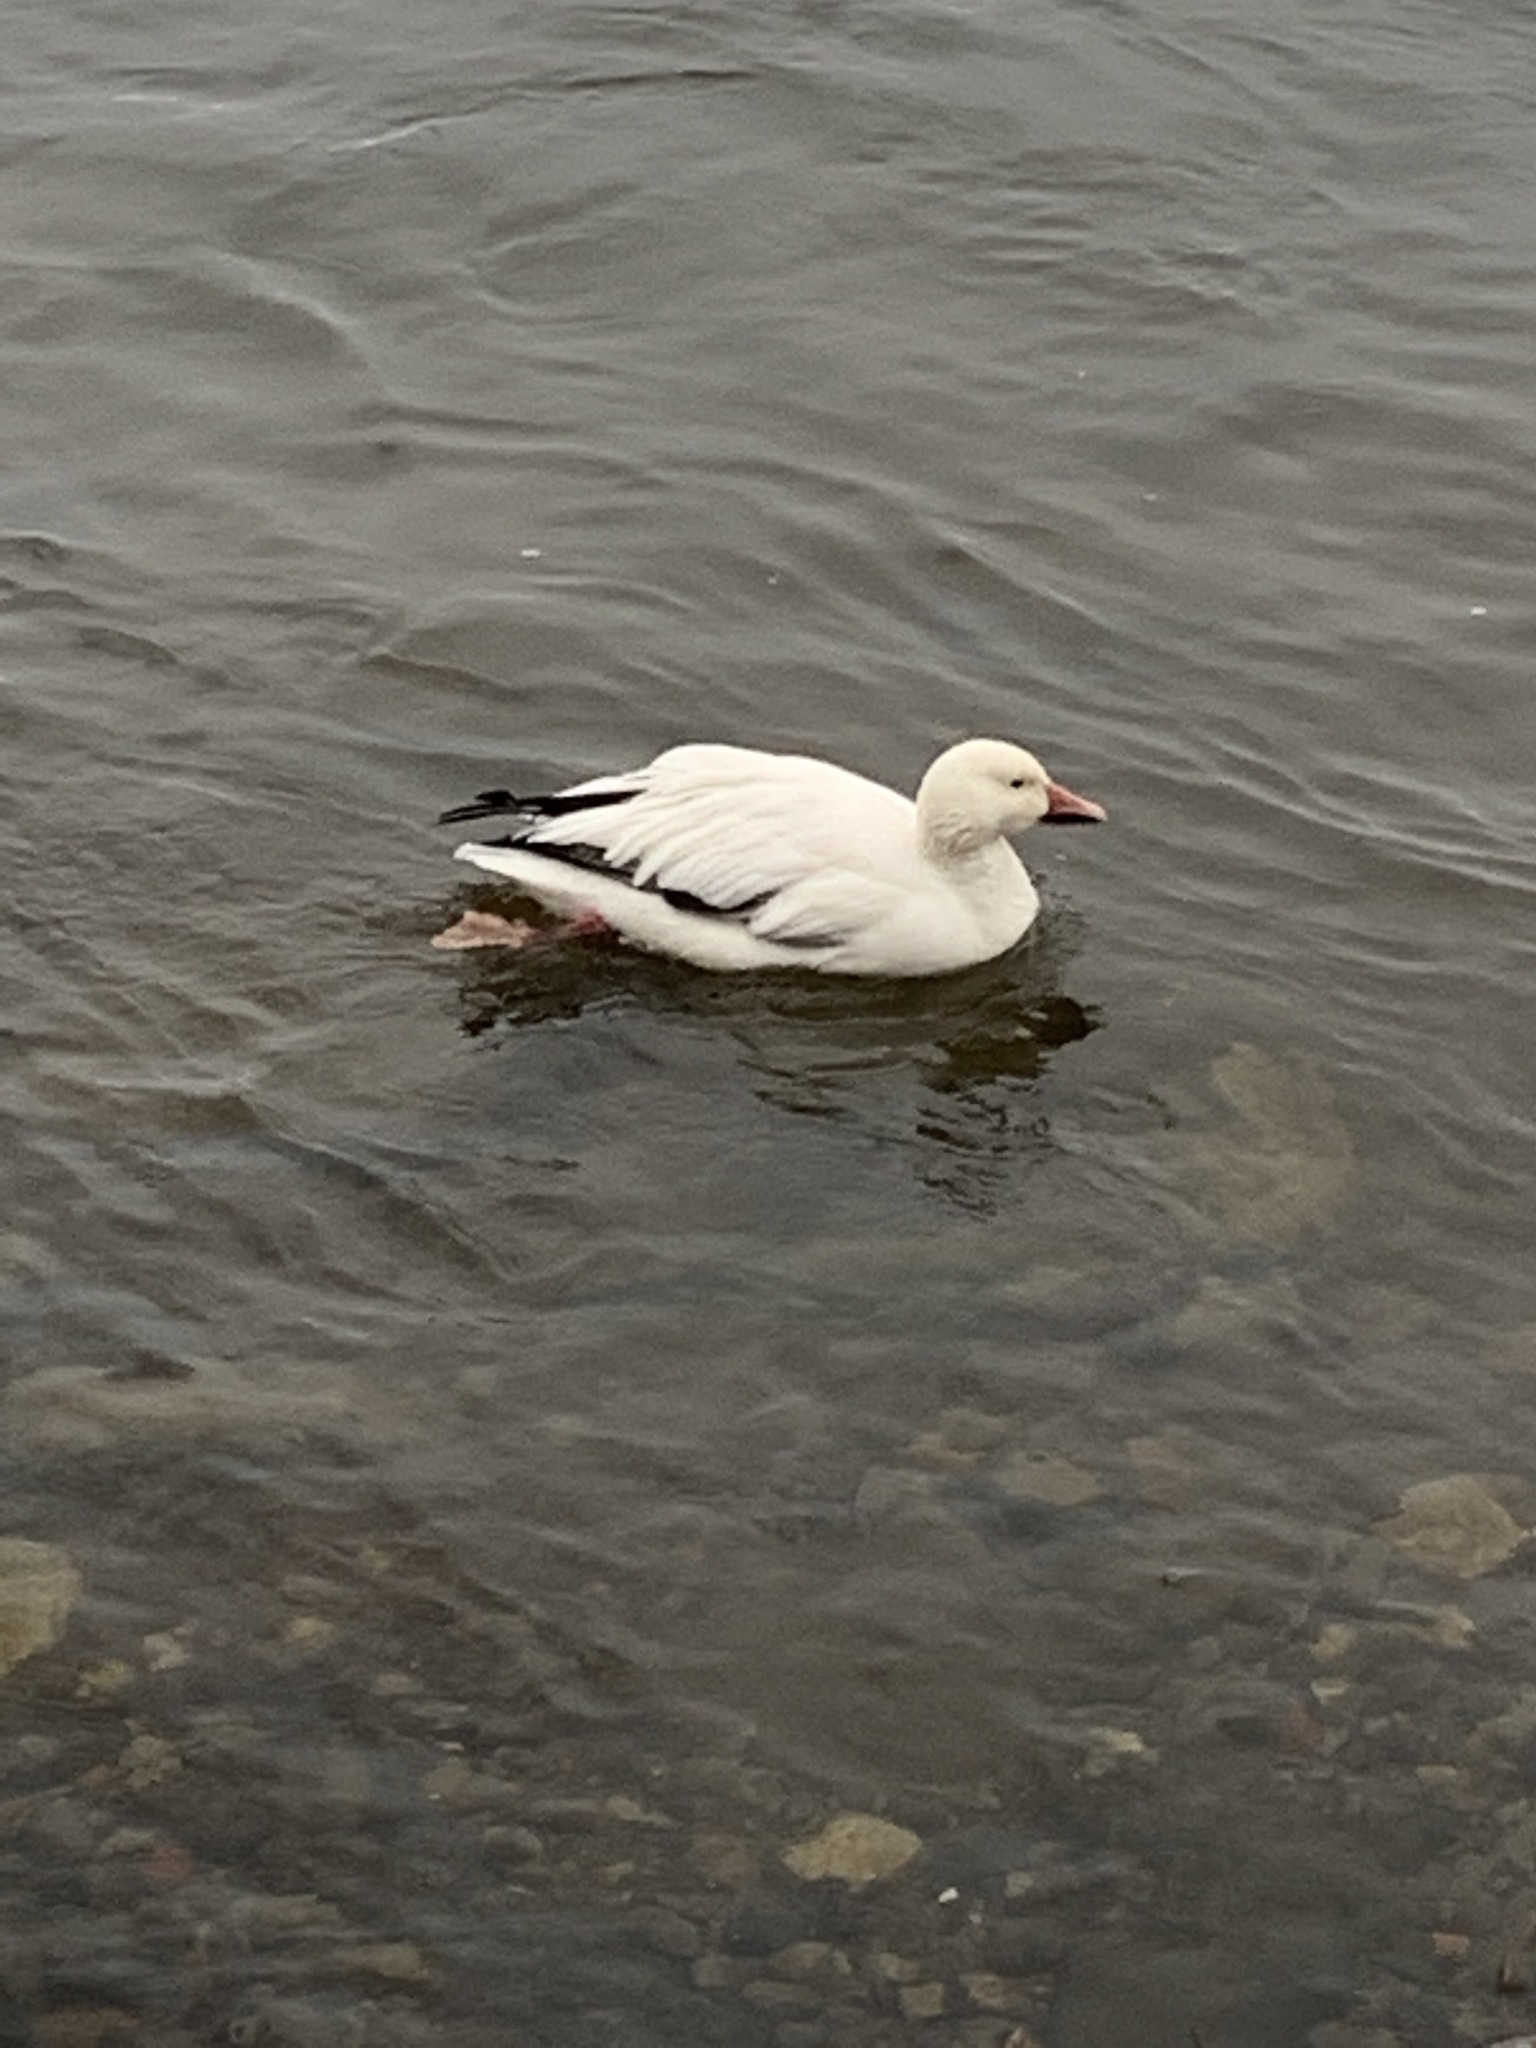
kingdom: Animalia
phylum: Chordata
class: Aves
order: Anseriformes
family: Anatidae
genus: Anser
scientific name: Anser caerulescens
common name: Snow goose
